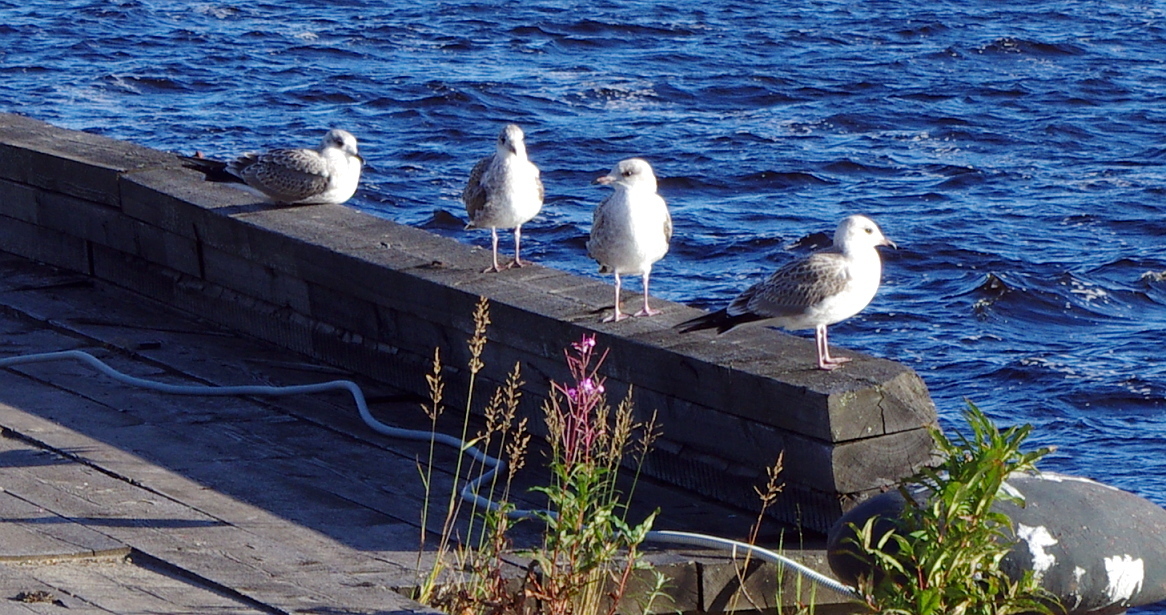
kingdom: Animalia
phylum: Chordata
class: Aves
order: Charadriiformes
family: Laridae
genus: Larus
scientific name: Larus canus
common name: Mew gull
